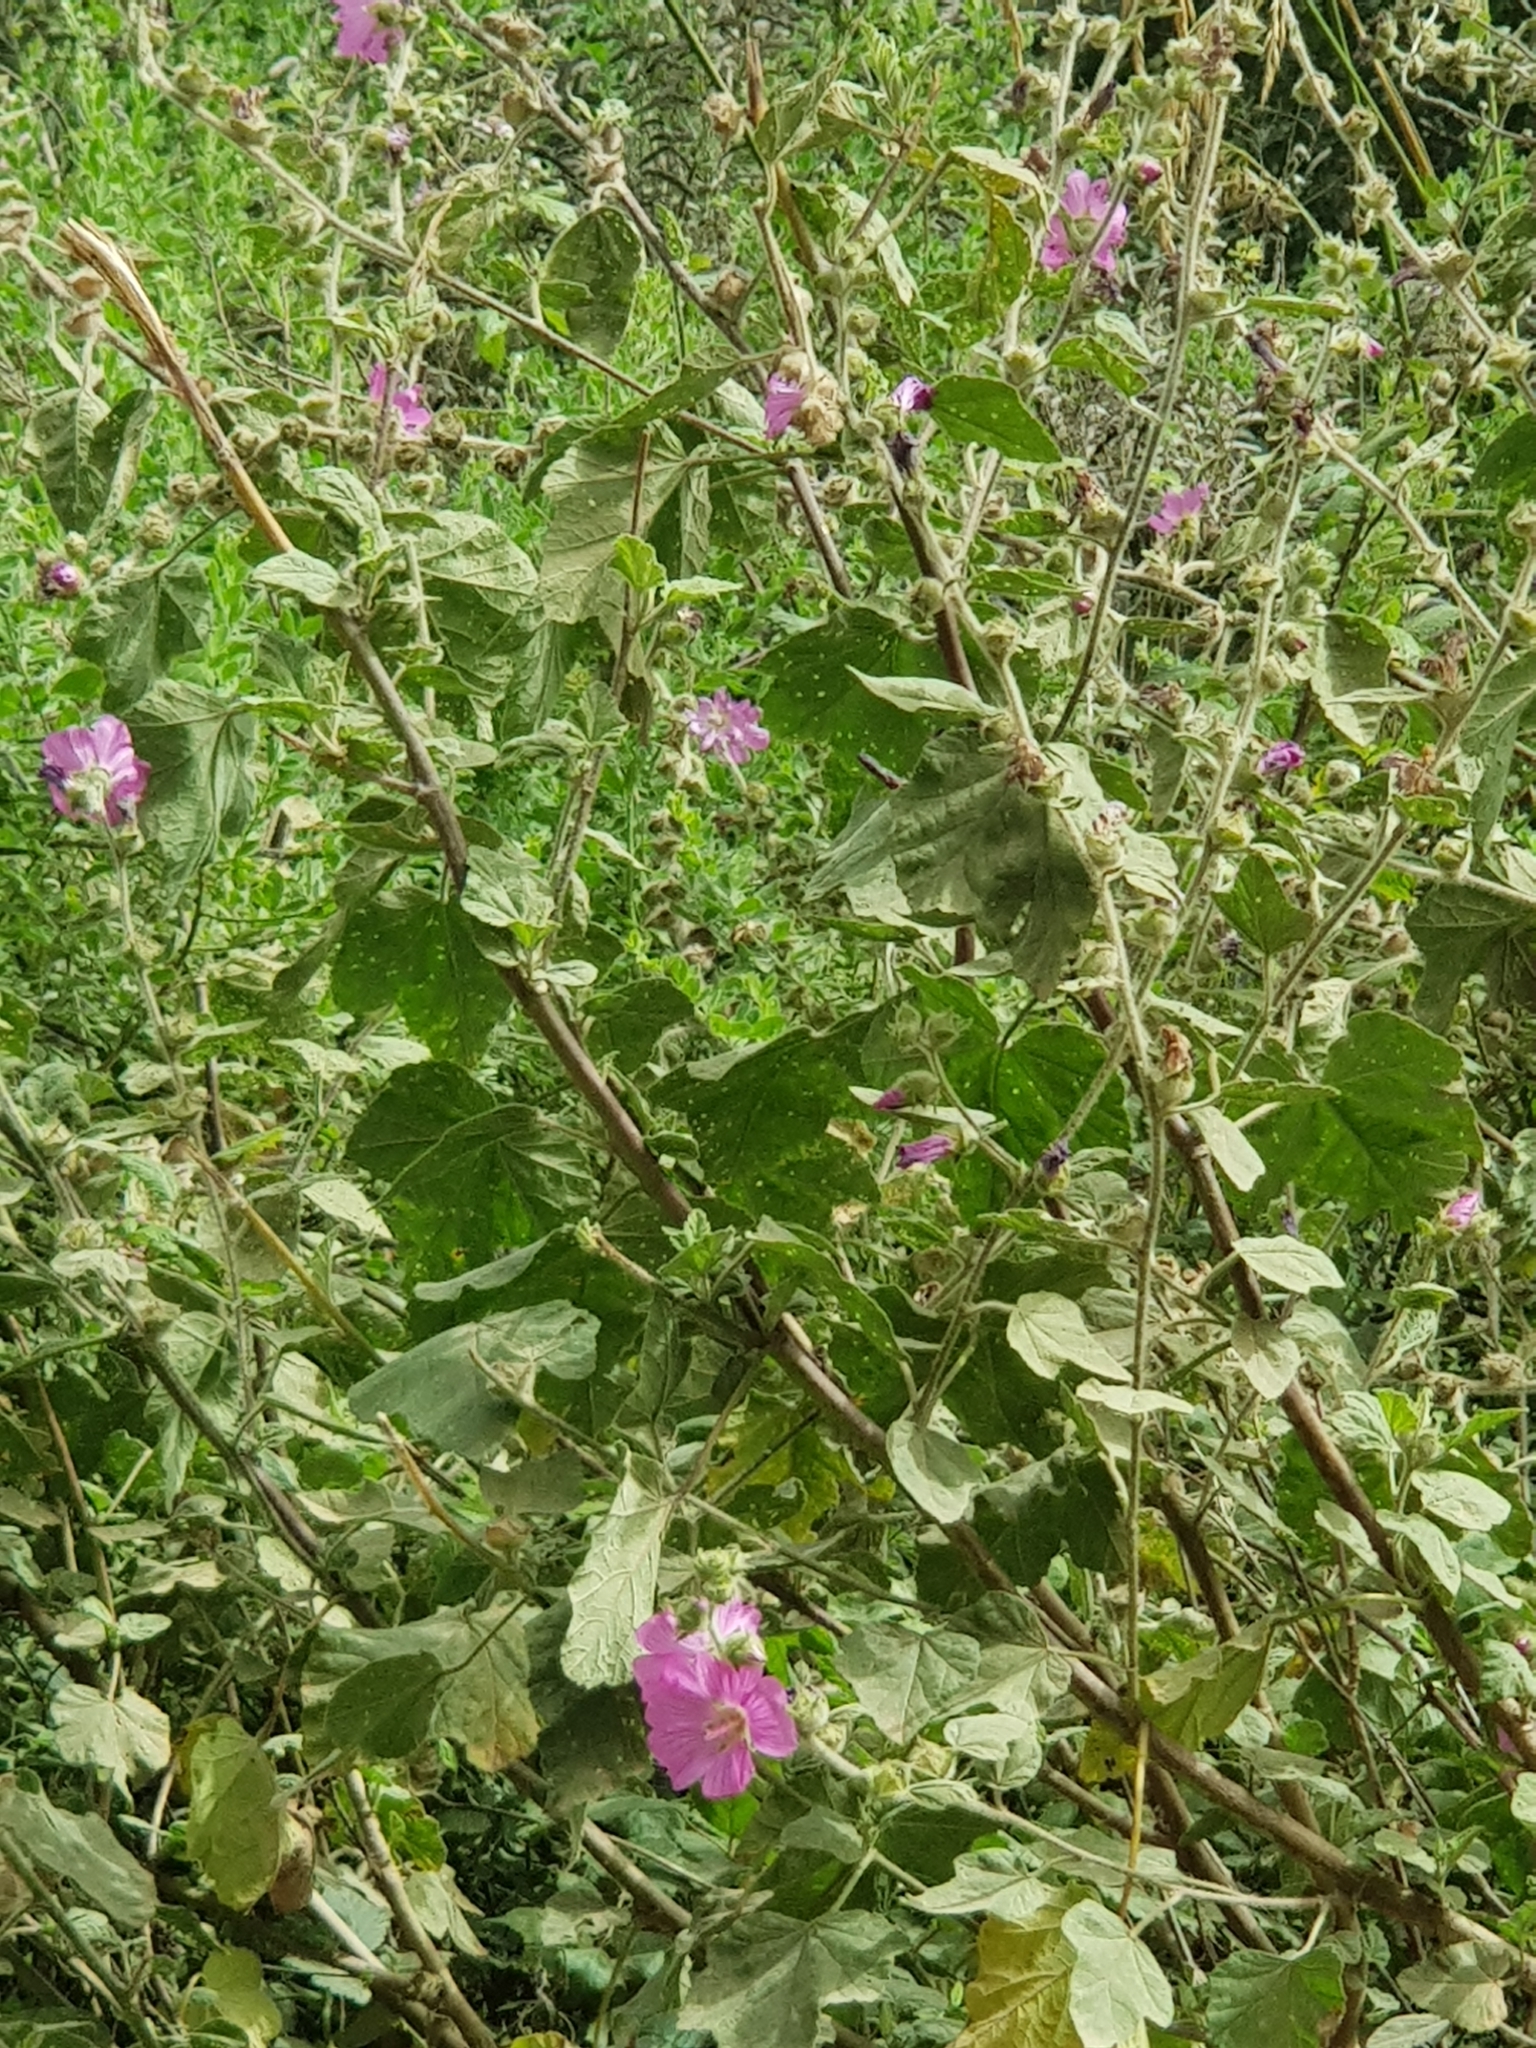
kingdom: Plantae
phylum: Tracheophyta
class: Magnoliopsida
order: Malvales
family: Malvaceae
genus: Malva
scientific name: Malva olbia
